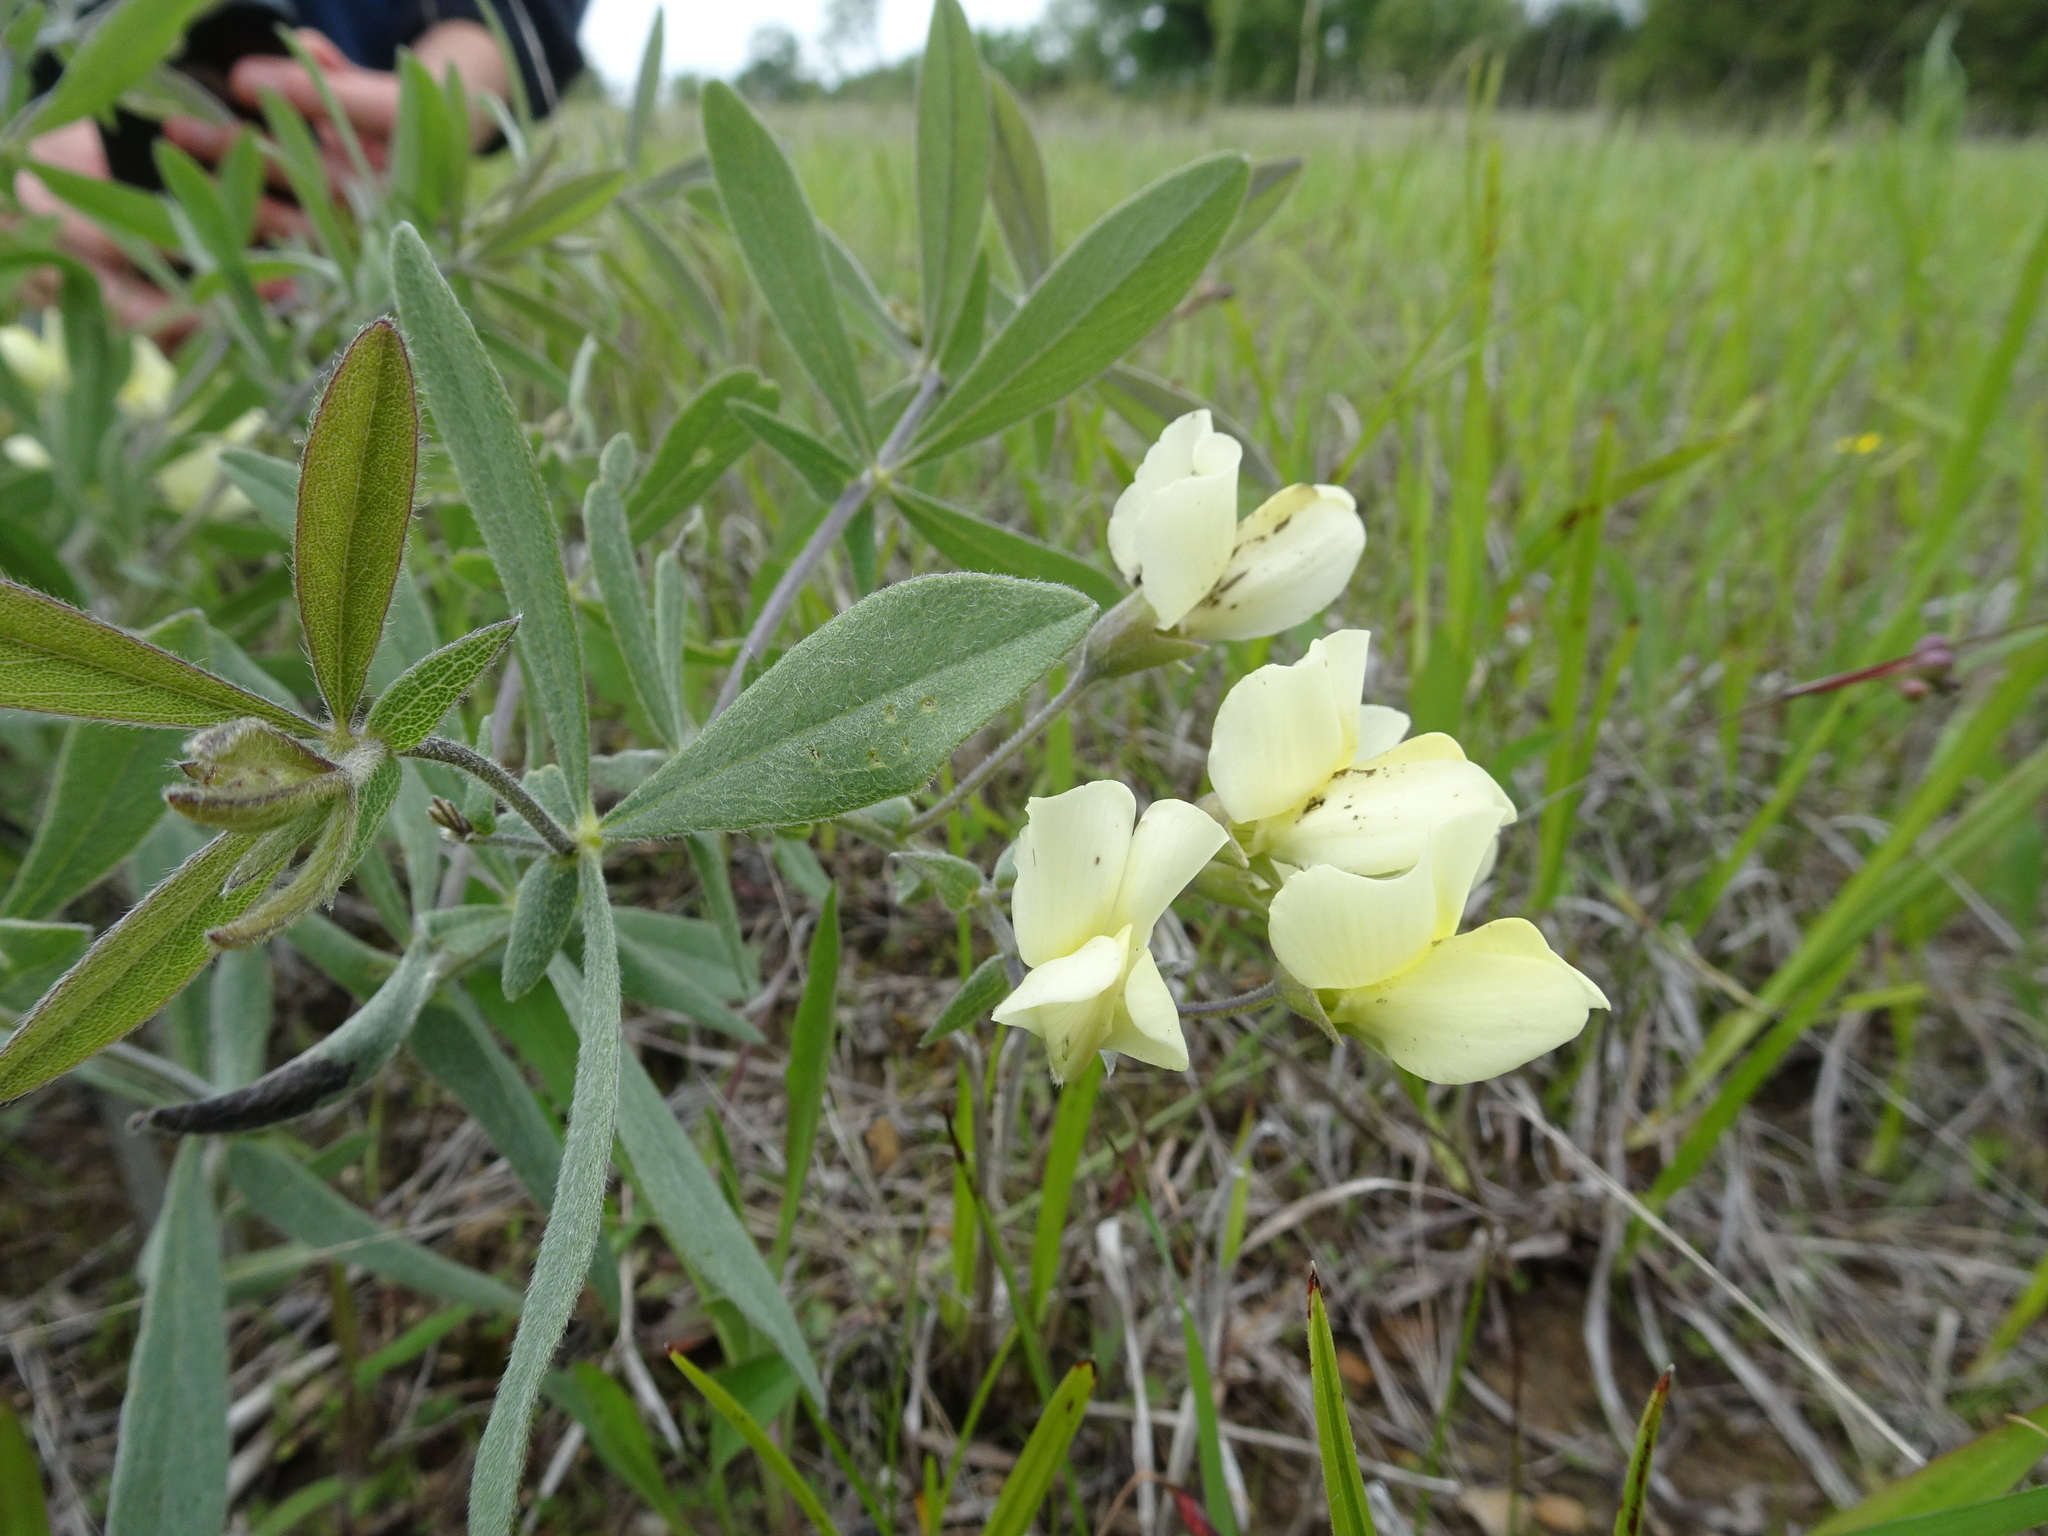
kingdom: Plantae
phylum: Tracheophyta
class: Magnoliopsida
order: Fabales
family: Fabaceae
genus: Baptisia
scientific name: Baptisia bracteata
